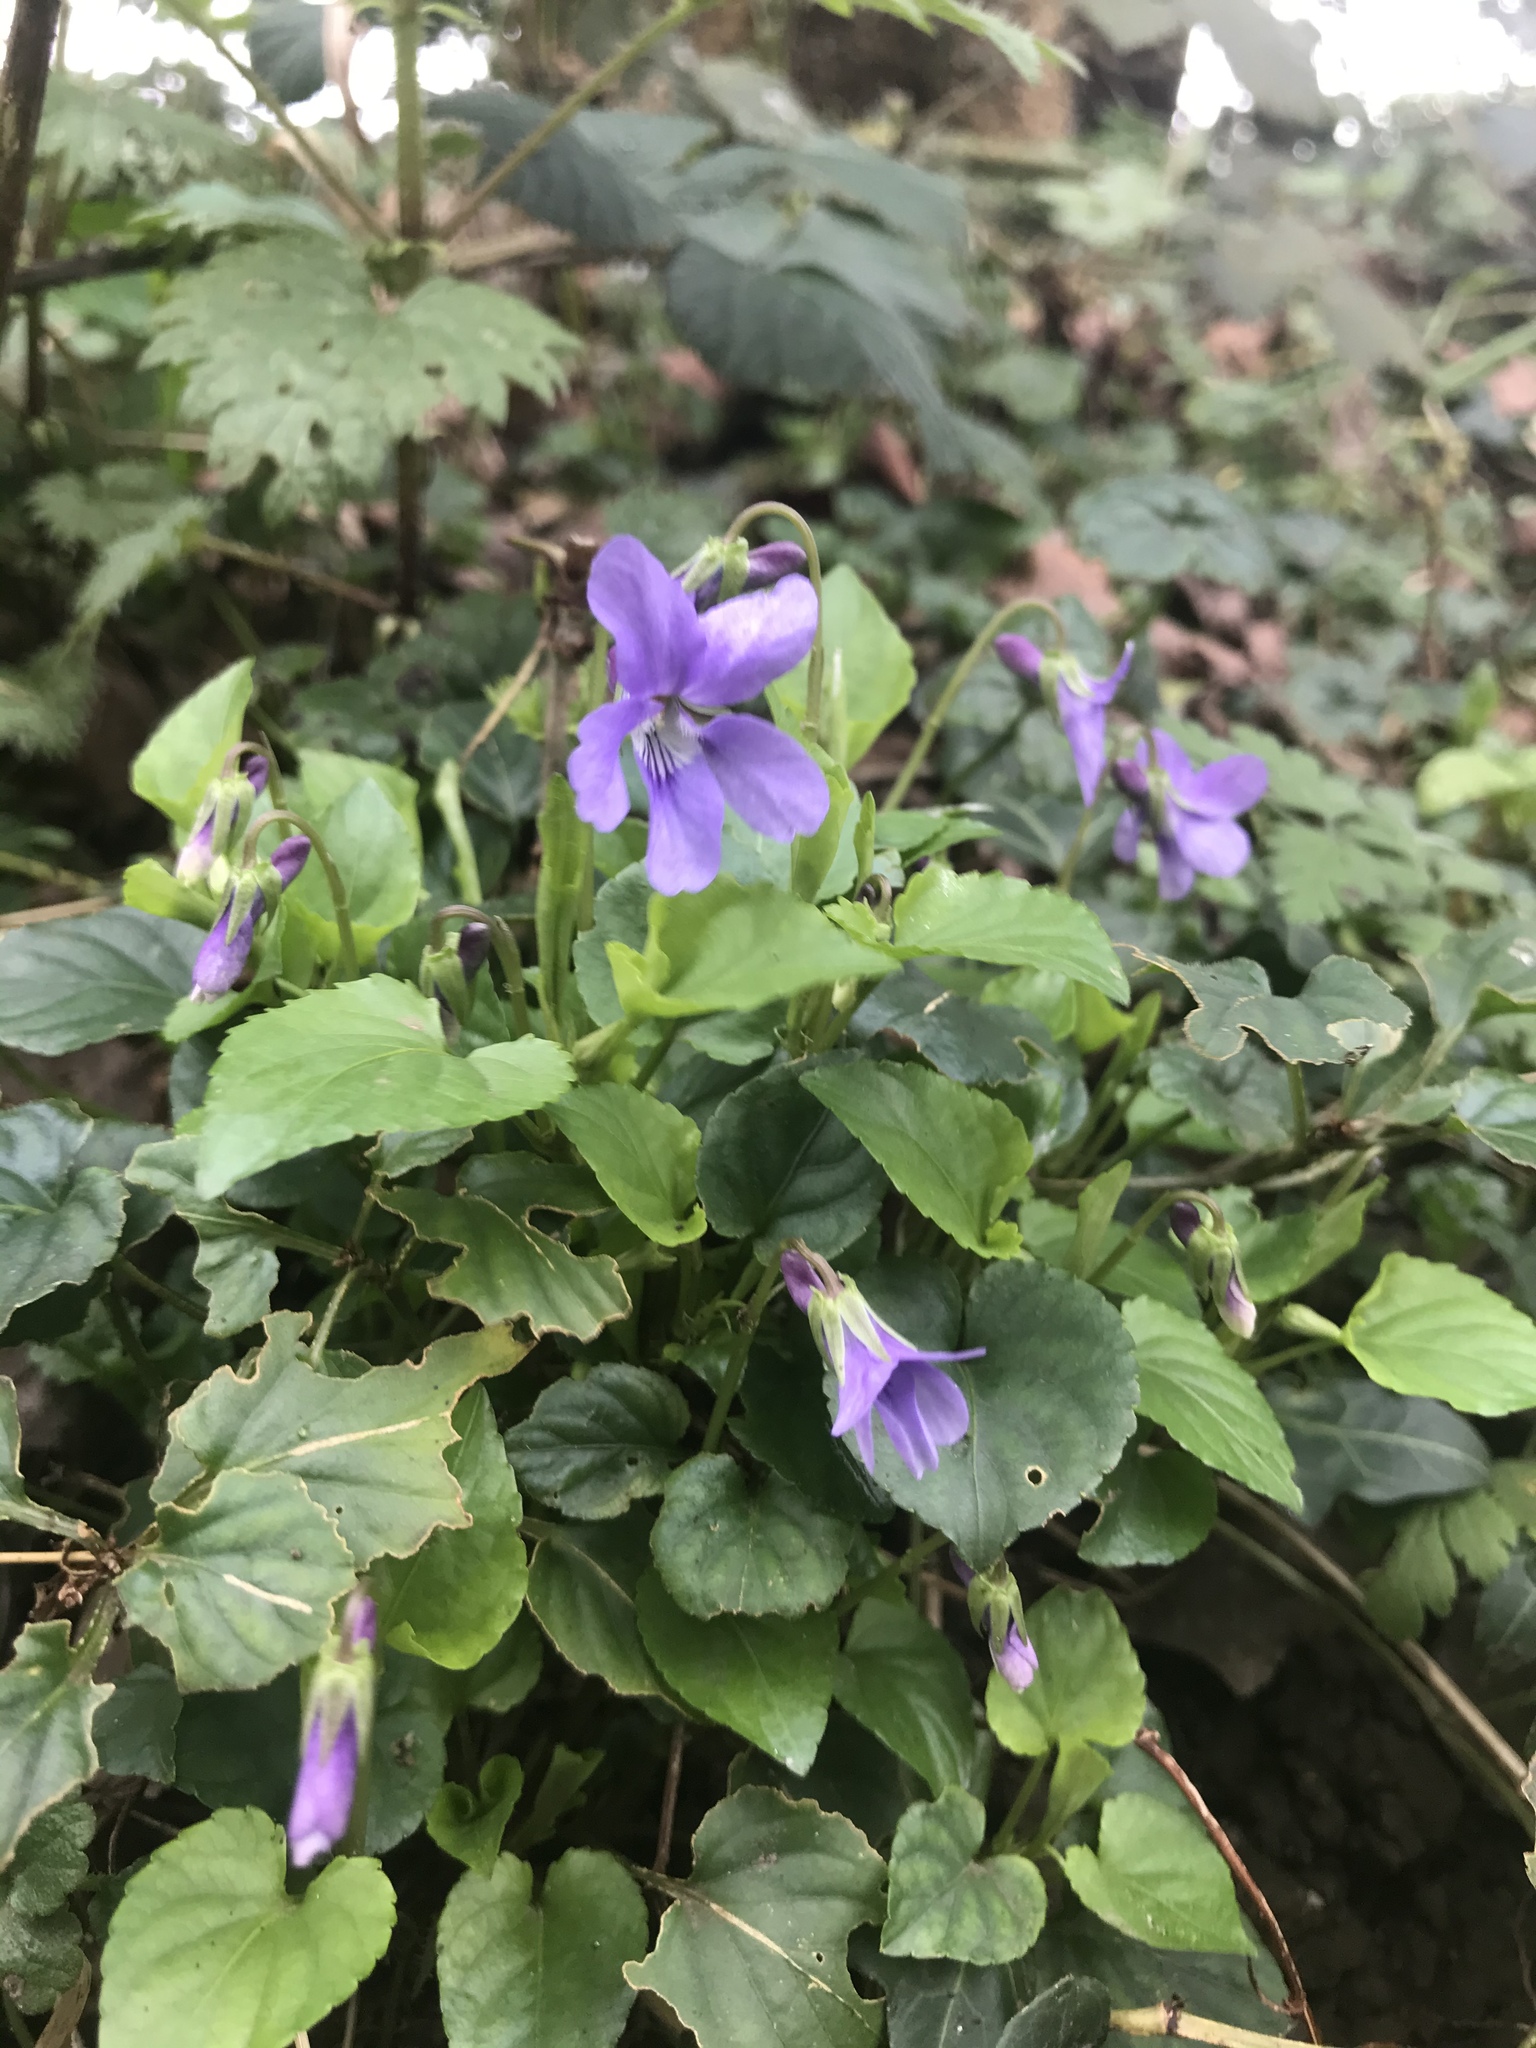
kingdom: Plantae
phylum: Tracheophyta
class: Magnoliopsida
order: Malpighiales
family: Violaceae
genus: Viola
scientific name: Viola reichenbachiana
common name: Early dog-violet
